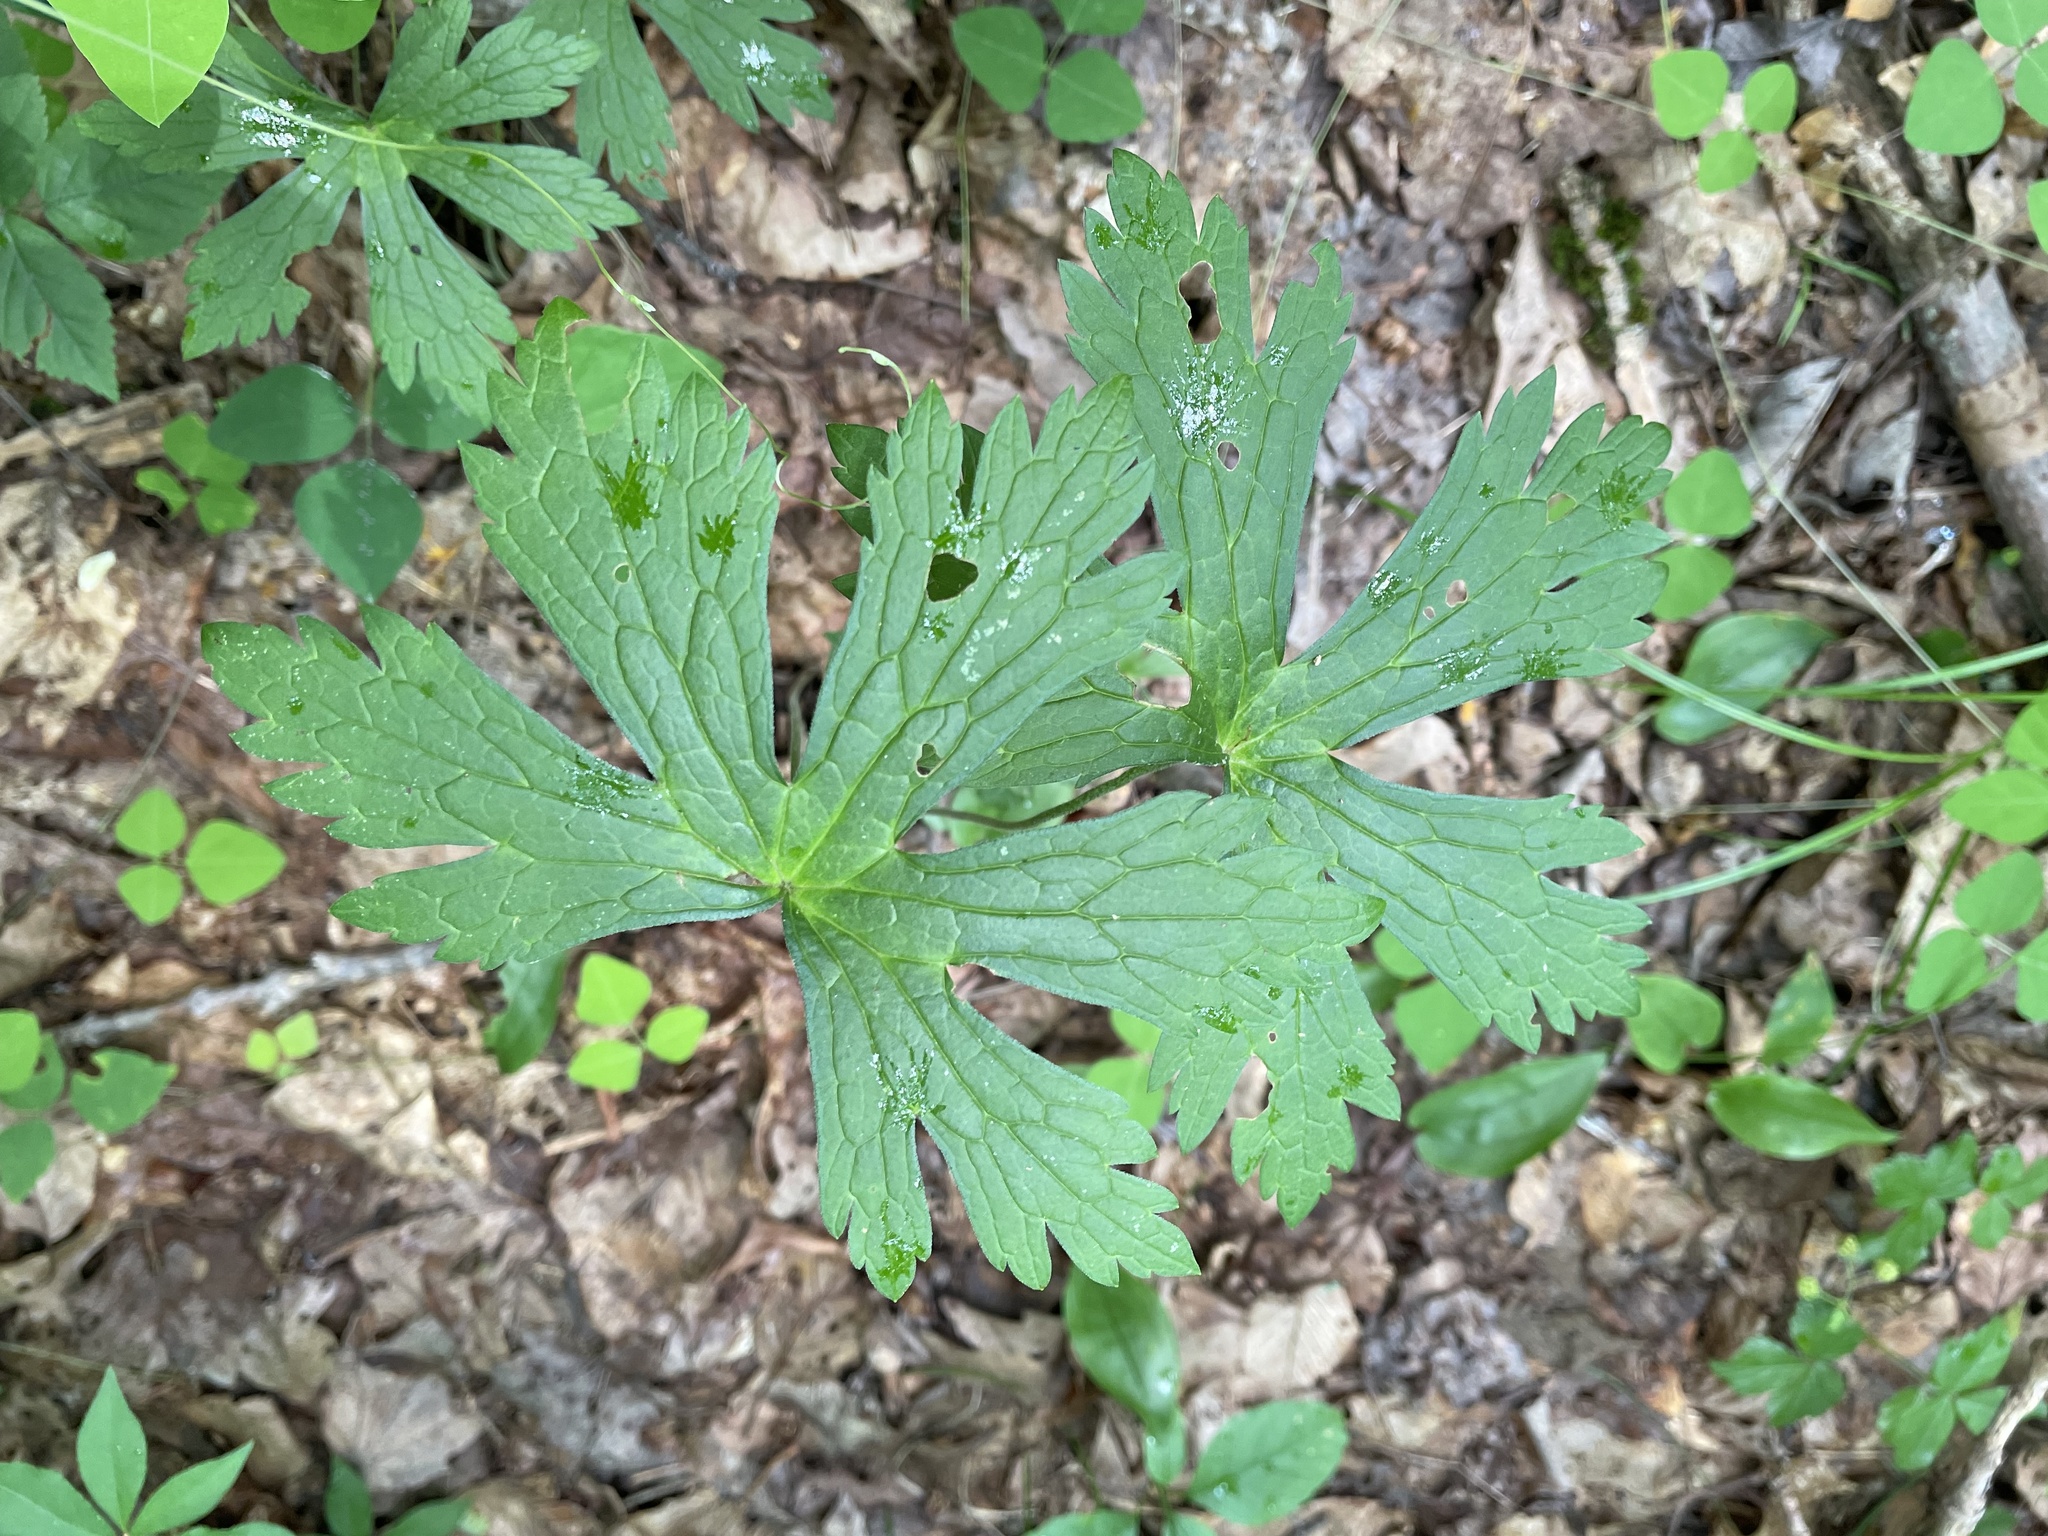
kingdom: Plantae
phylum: Tracheophyta
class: Magnoliopsida
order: Geraniales
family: Geraniaceae
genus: Geranium
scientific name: Geranium maculatum
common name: Spotted geranium
